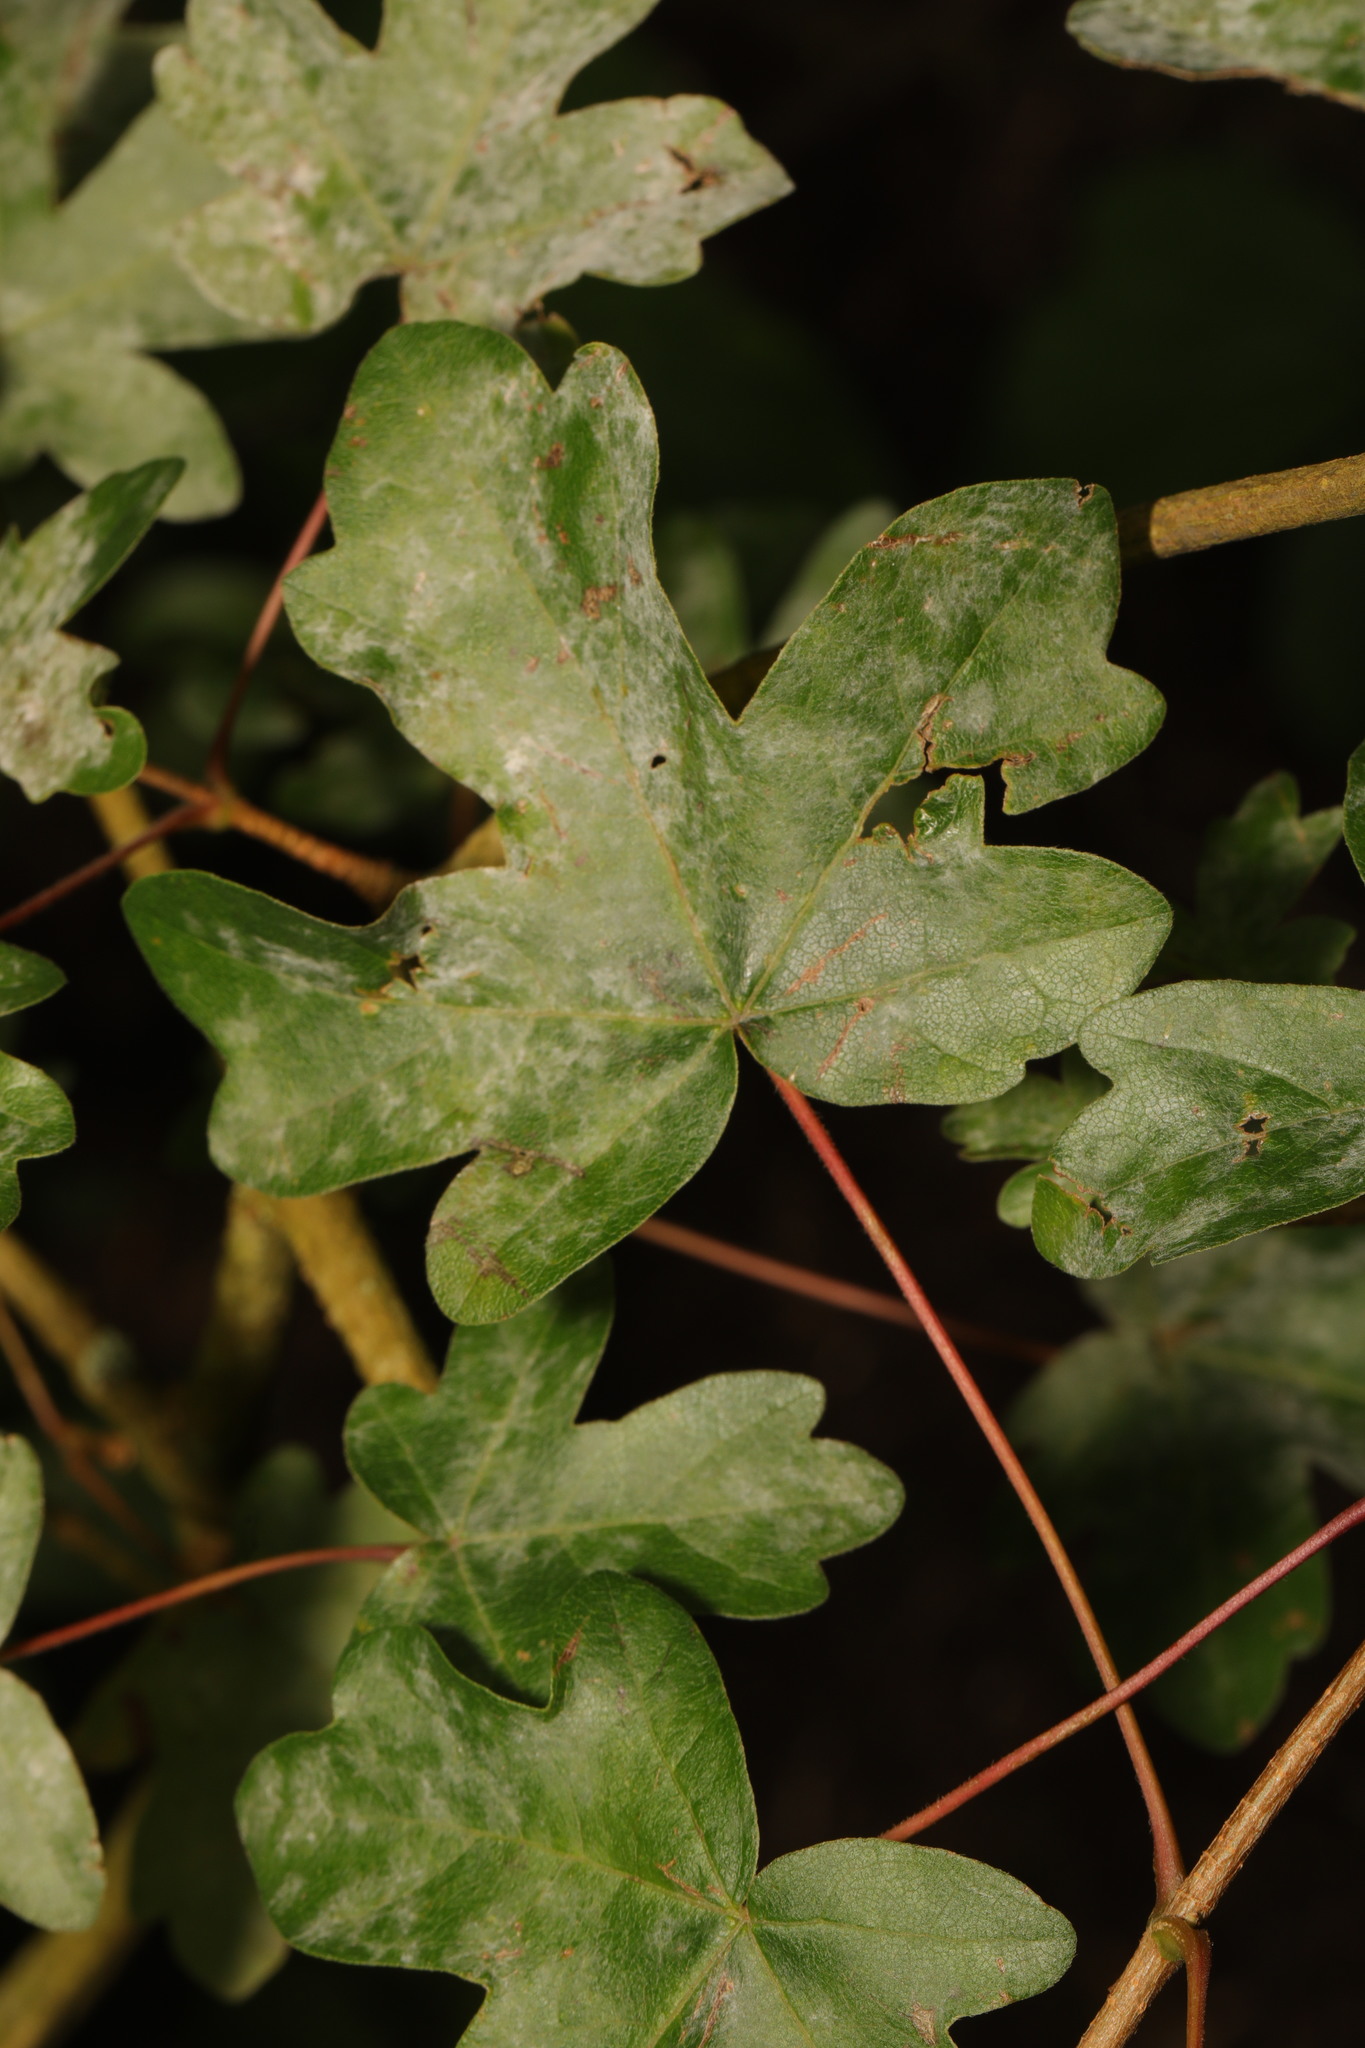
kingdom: Plantae
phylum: Tracheophyta
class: Magnoliopsida
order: Sapindales
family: Sapindaceae
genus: Acer
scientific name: Acer campestre
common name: Field maple
